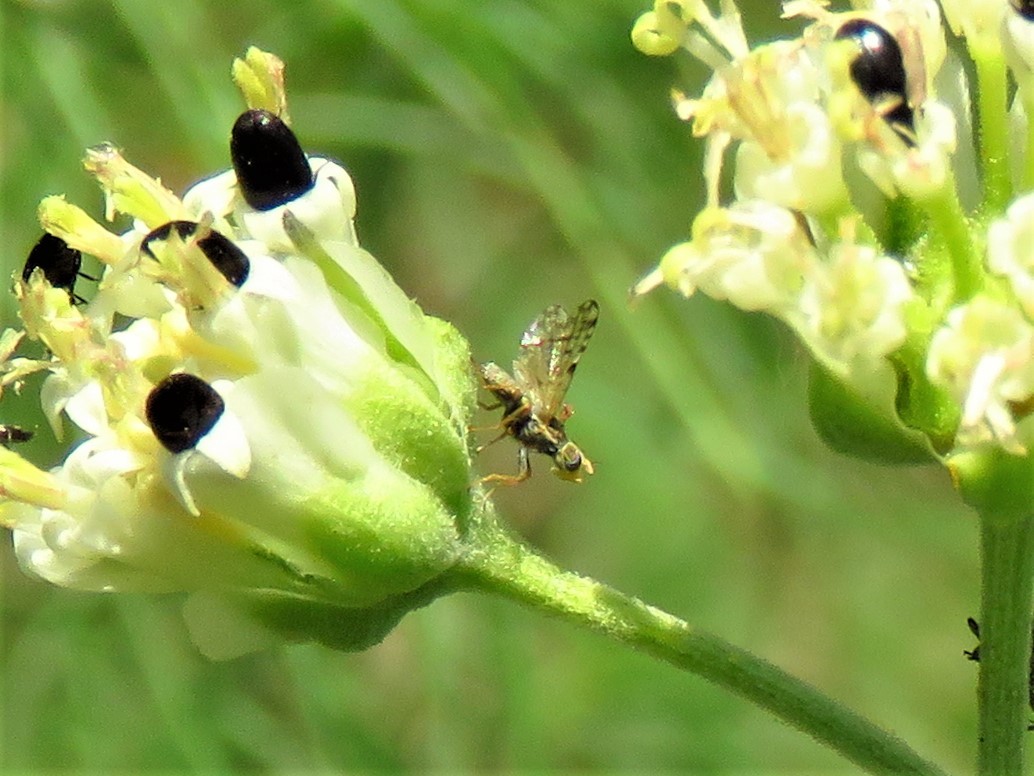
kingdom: Animalia
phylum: Arthropoda
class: Insecta
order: Diptera
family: Tephritidae
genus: Dioxyna
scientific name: Dioxyna picciola
